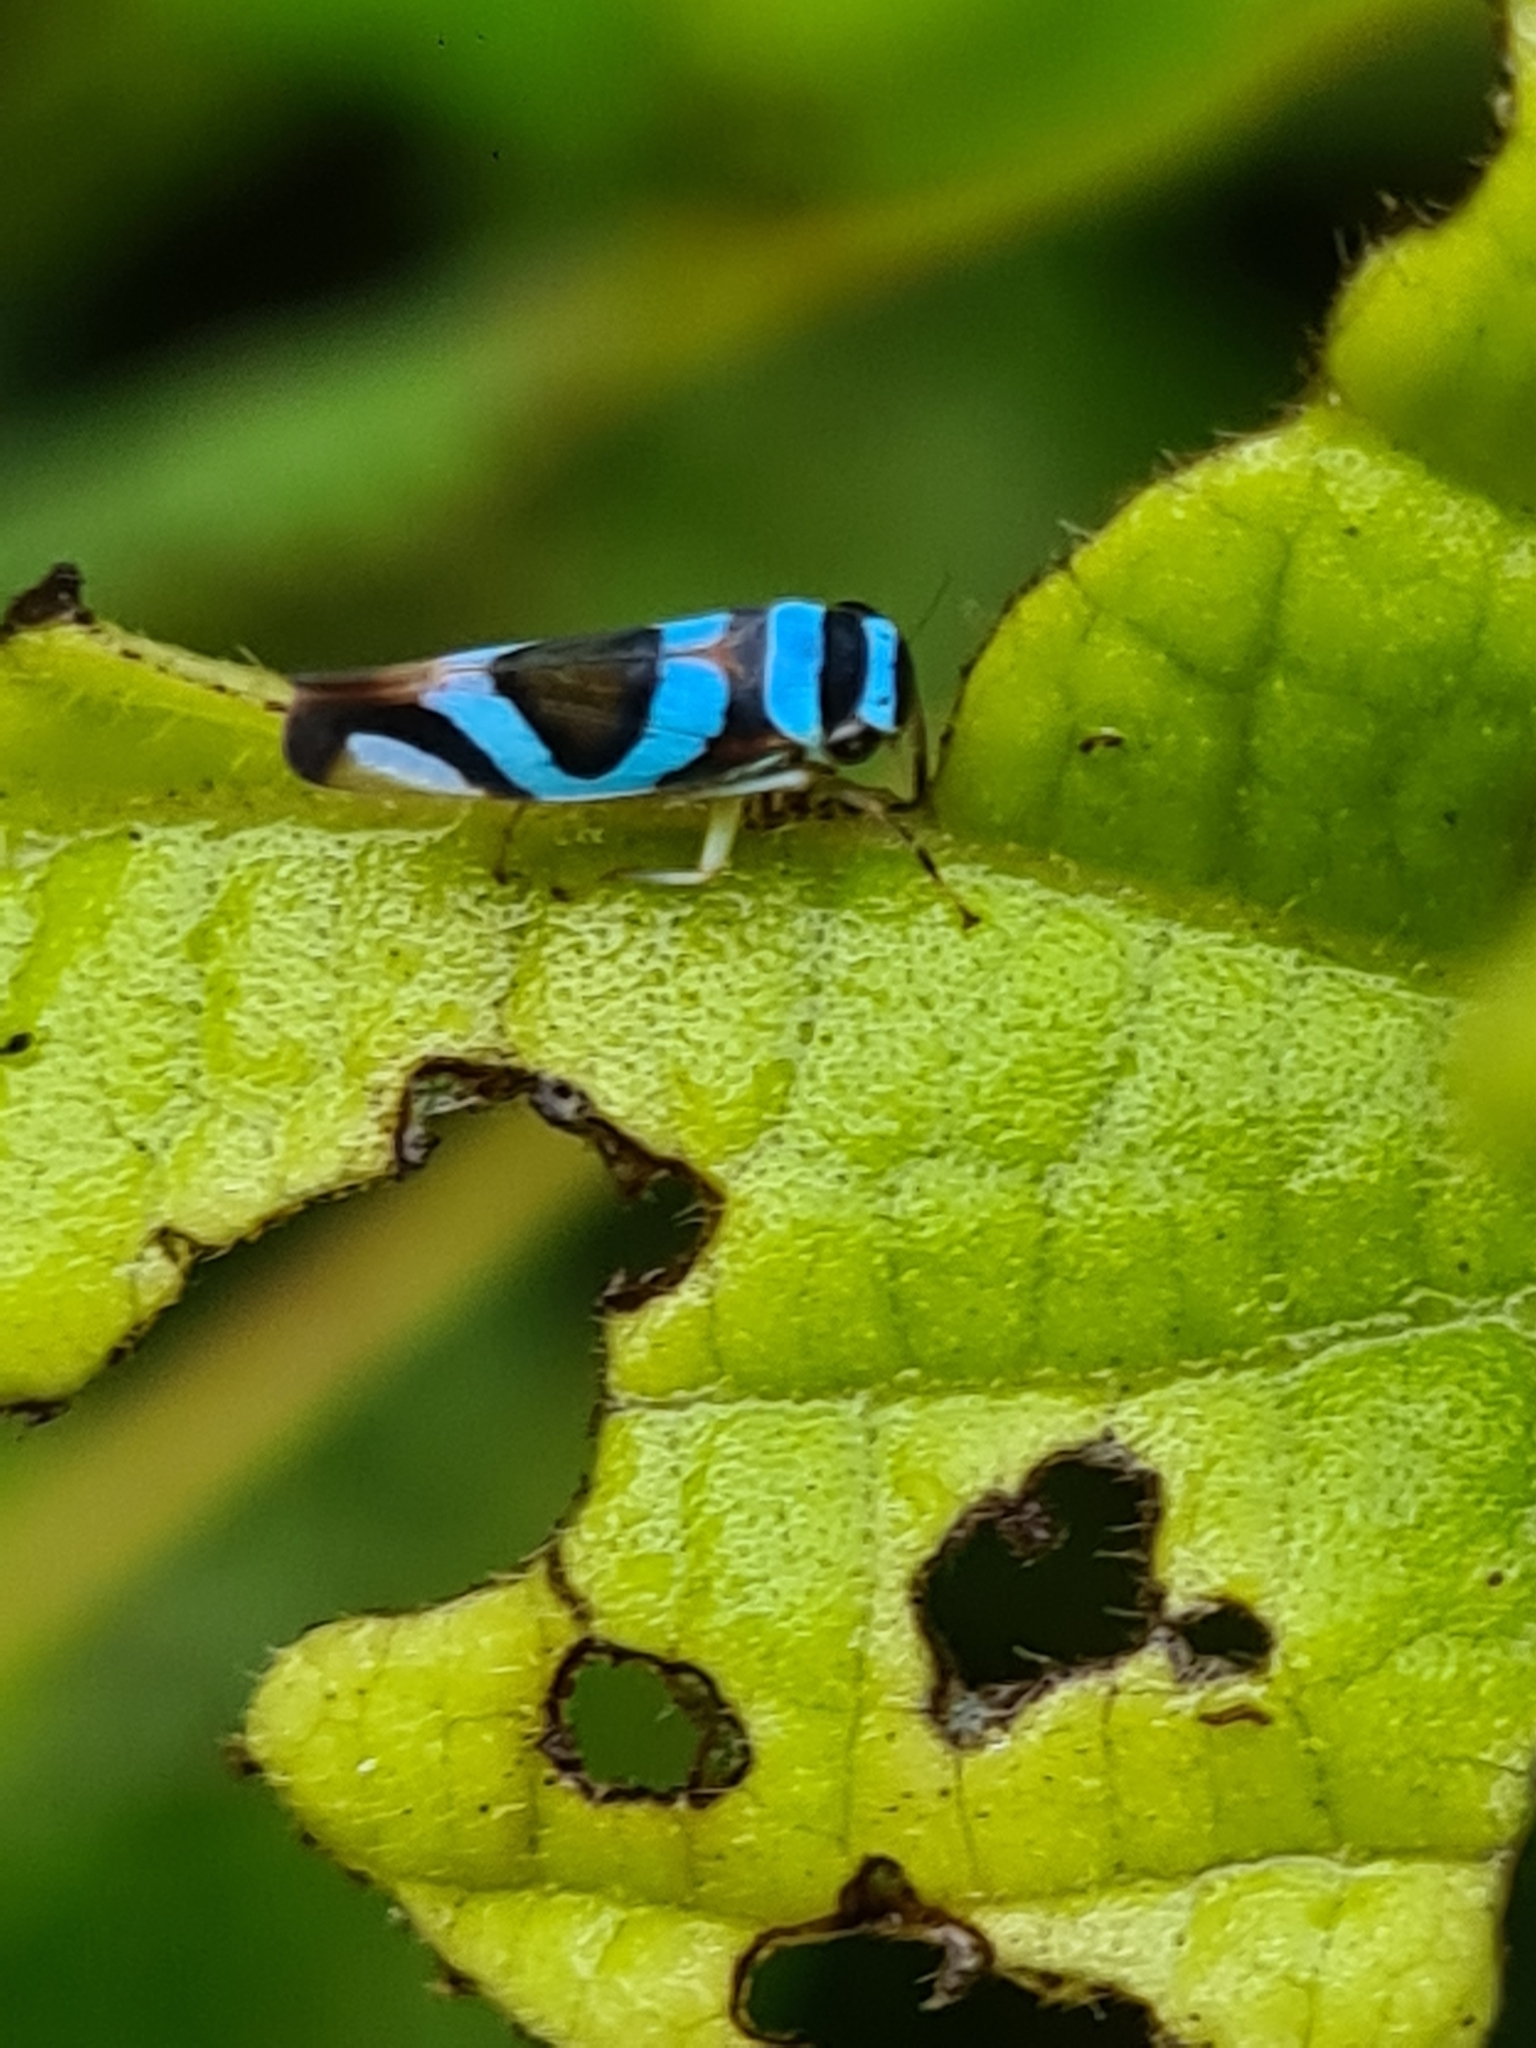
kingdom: Animalia
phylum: Arthropoda
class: Insecta
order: Hemiptera
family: Cicadellidae
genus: Macugonalia
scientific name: Macugonalia moesta
